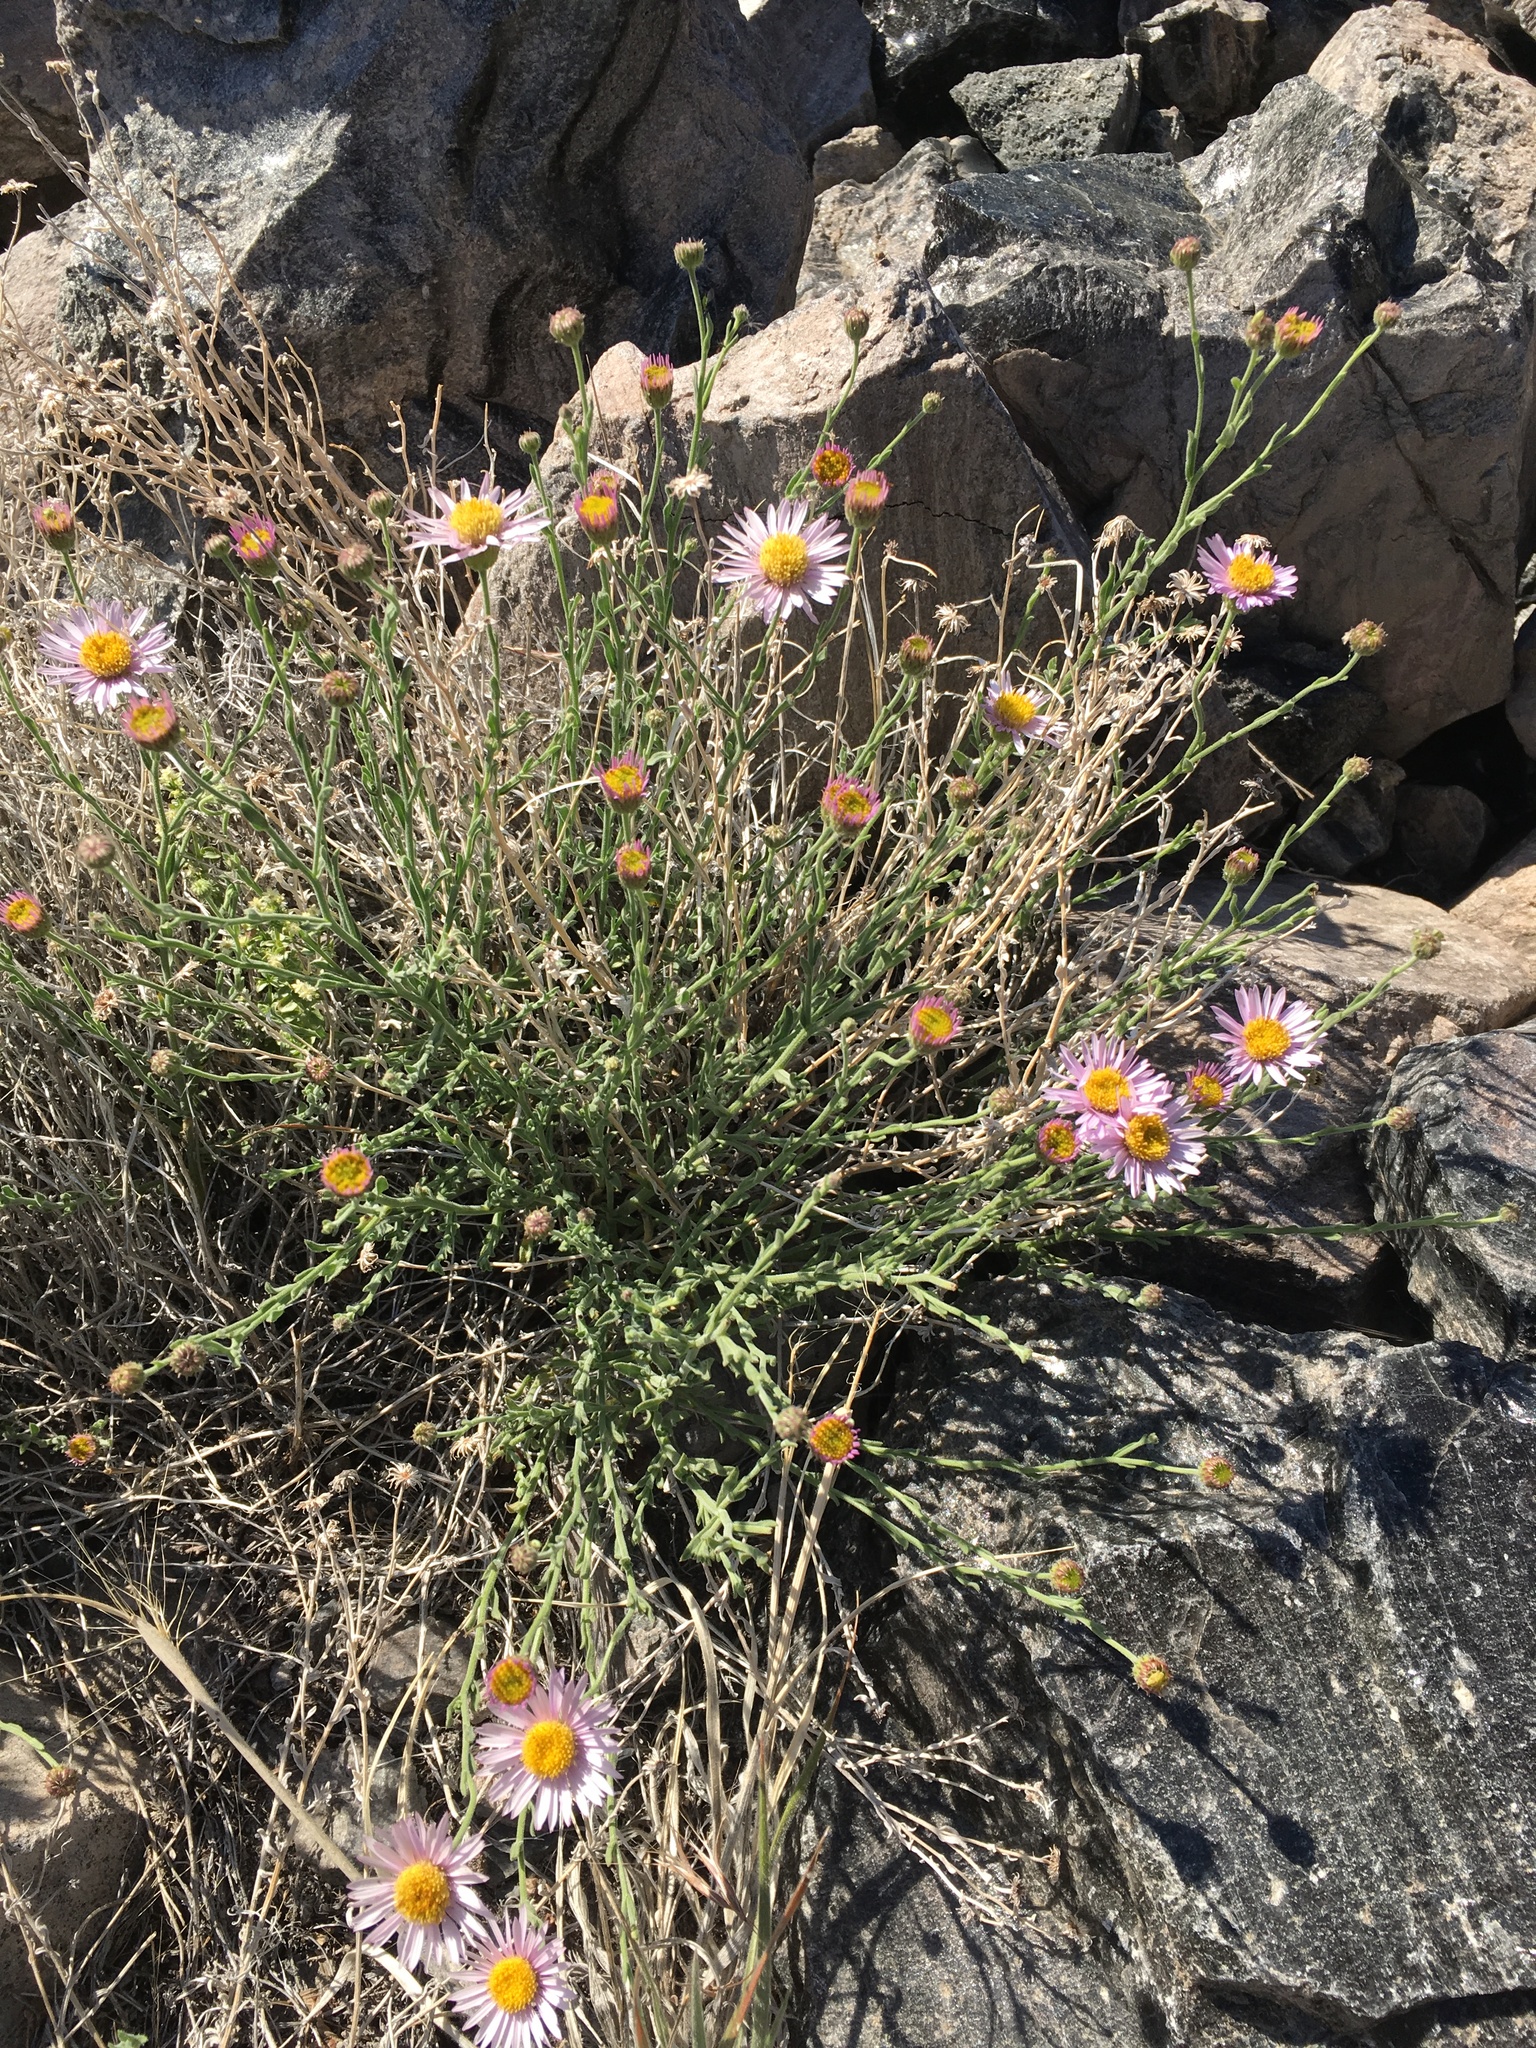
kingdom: Plantae
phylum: Tracheophyta
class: Magnoliopsida
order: Asterales
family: Asteraceae
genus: Erigeron
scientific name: Erigeron breweri
